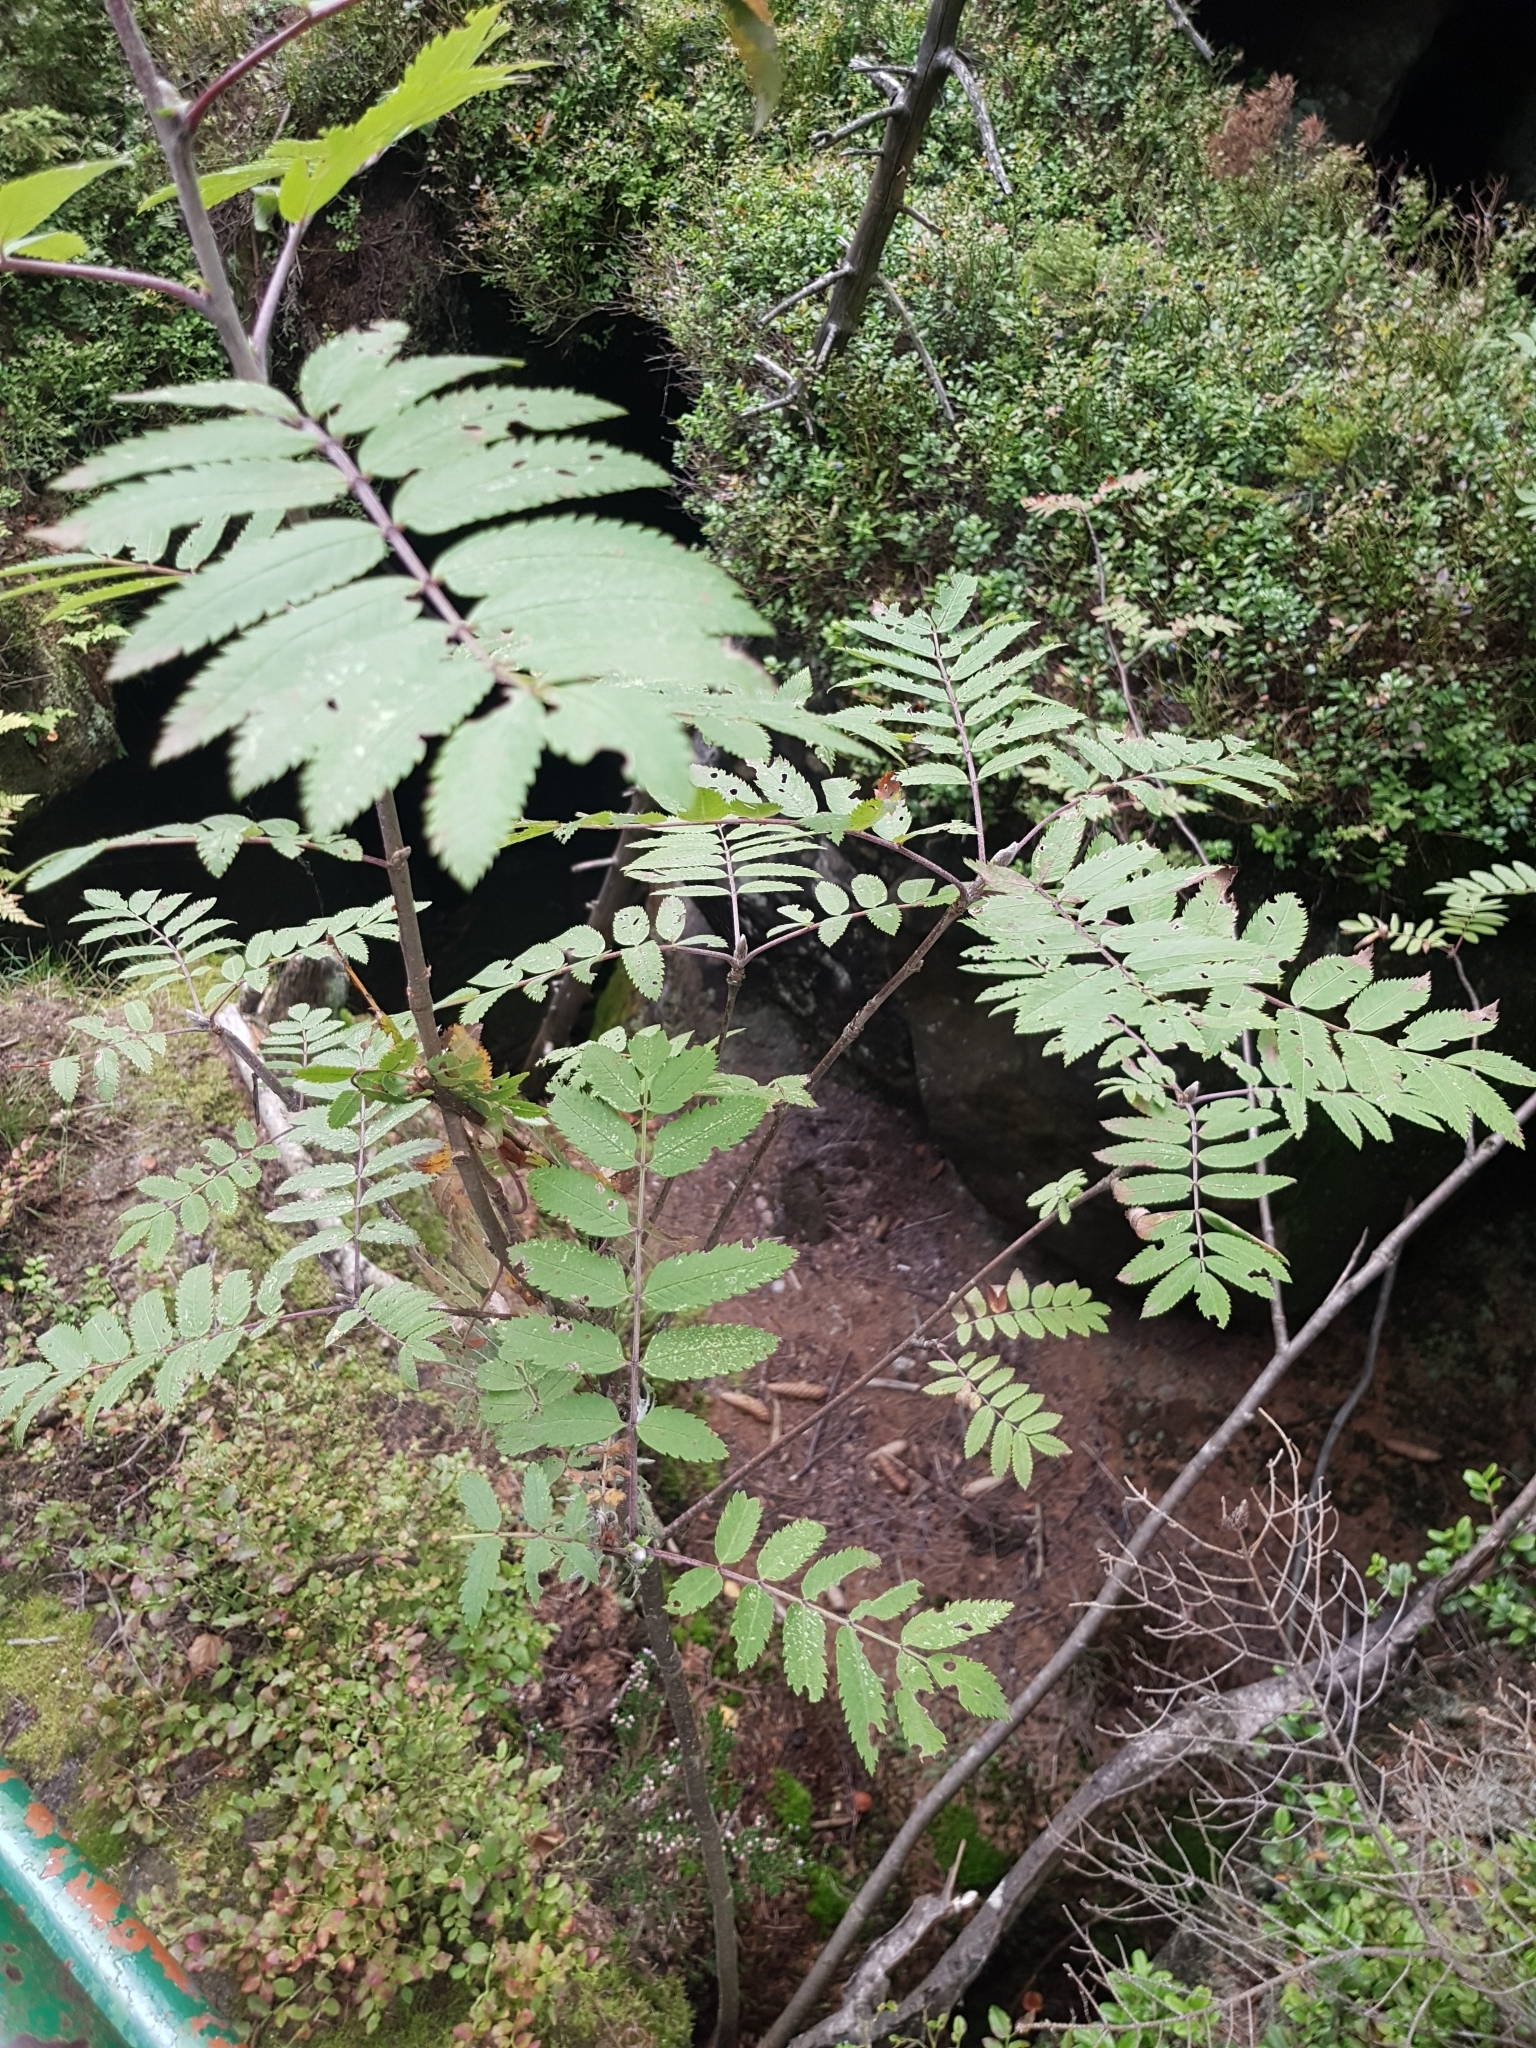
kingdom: Plantae
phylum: Tracheophyta
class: Magnoliopsida
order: Rosales
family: Rosaceae
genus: Sorbus
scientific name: Sorbus aucuparia
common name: Rowan
